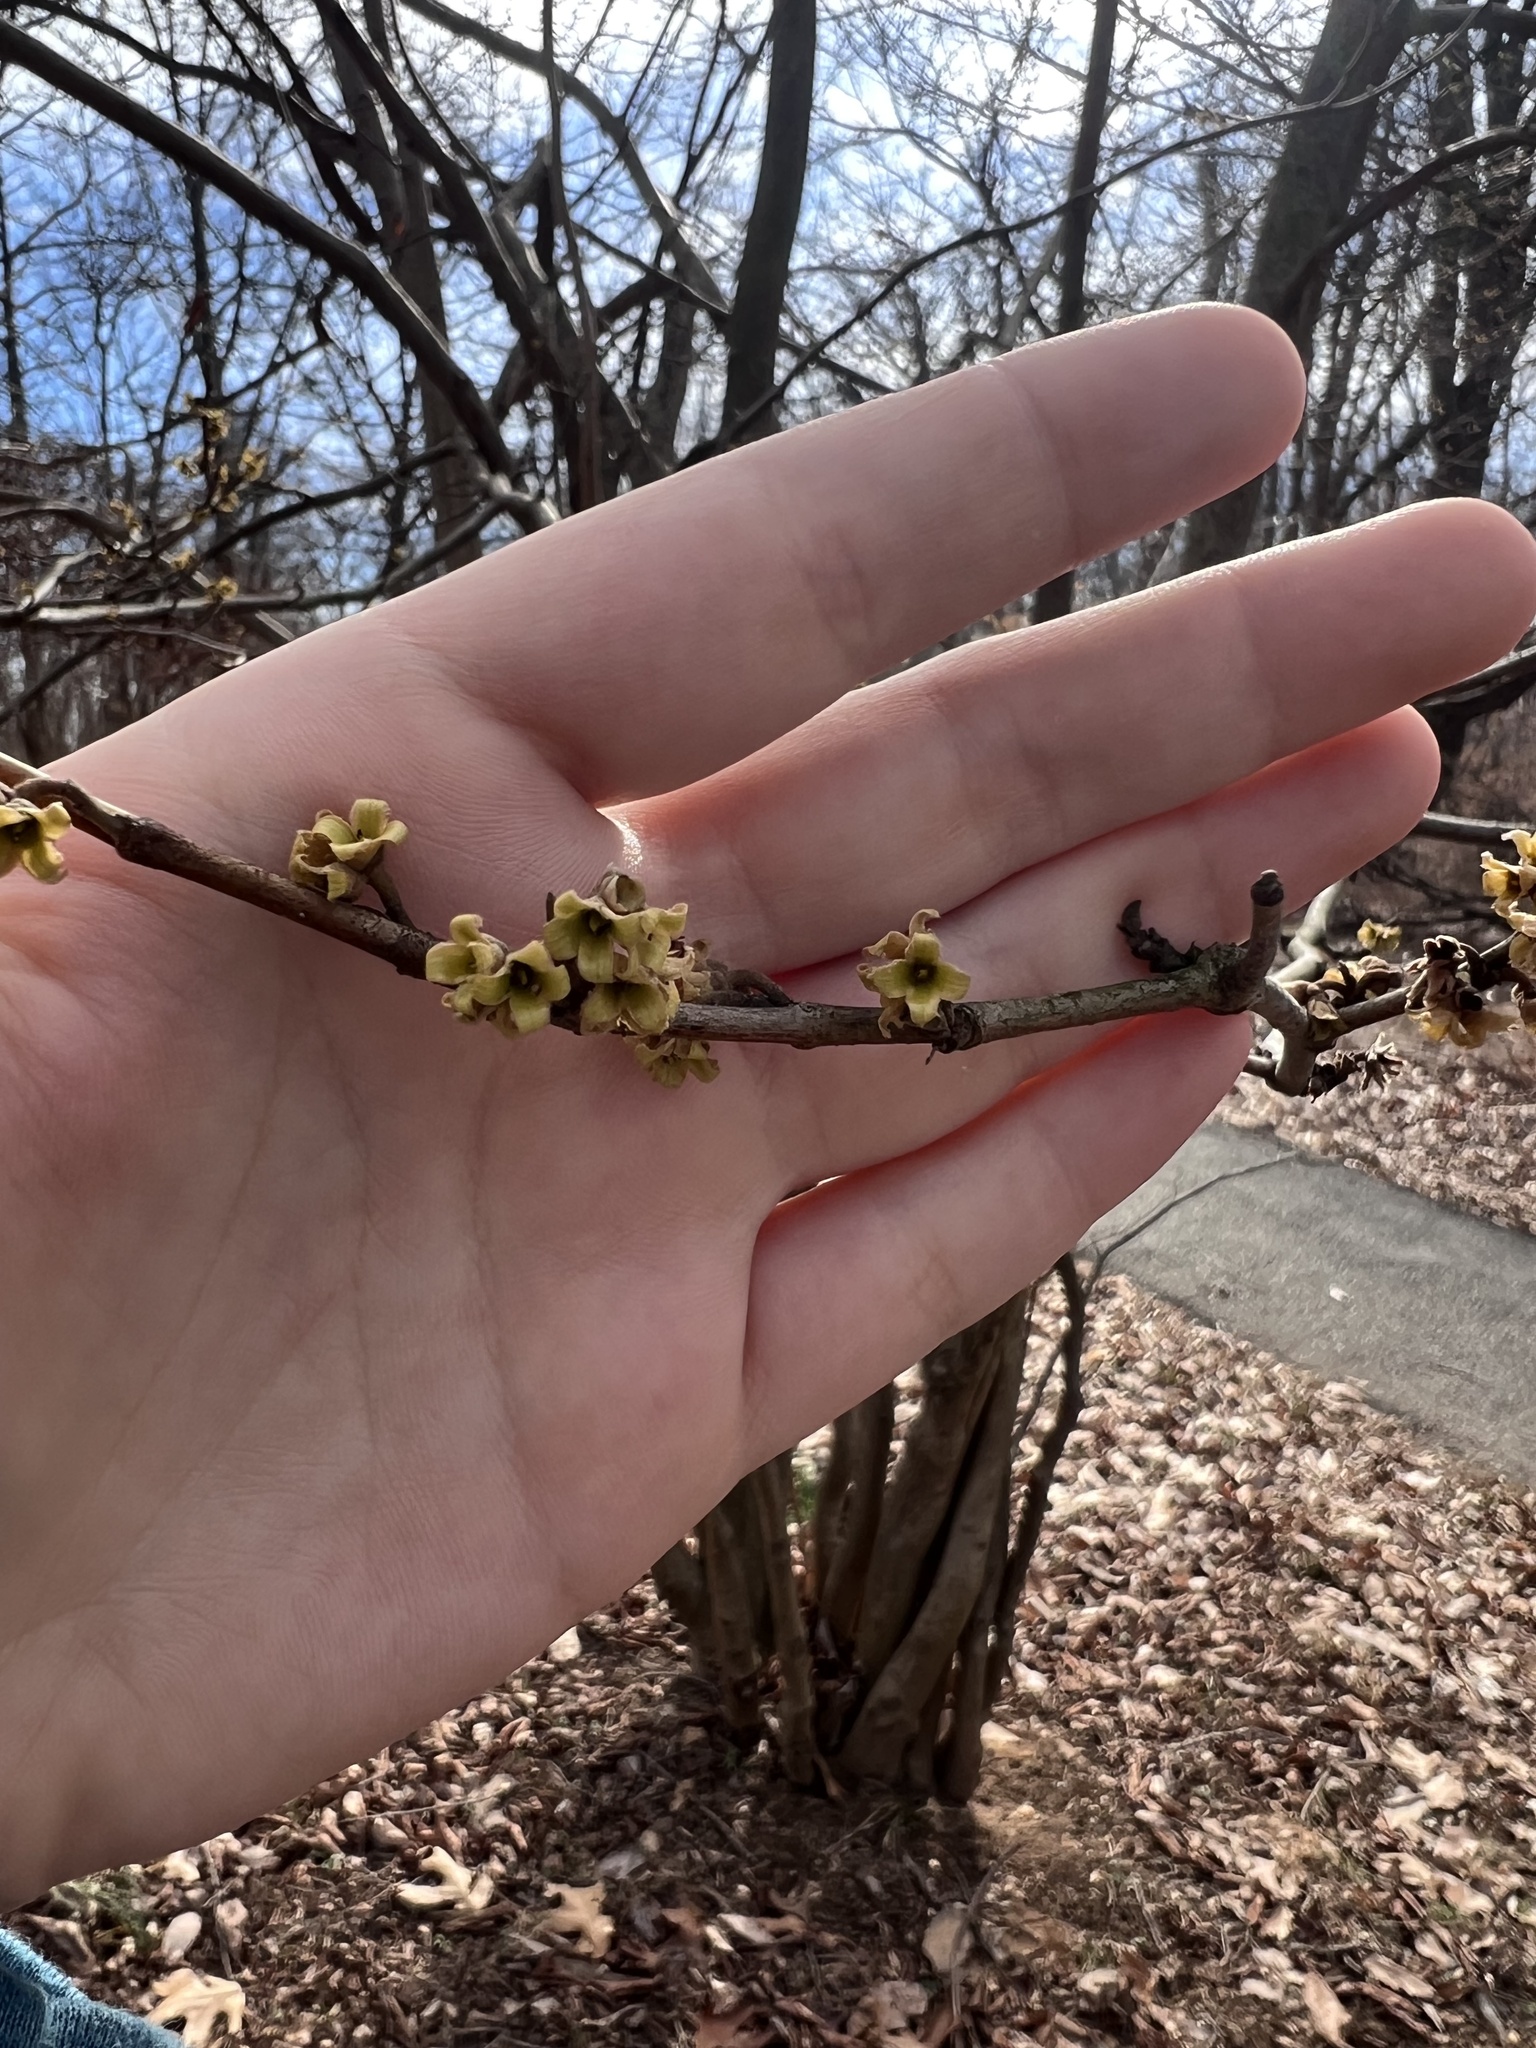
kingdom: Plantae
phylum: Tracheophyta
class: Magnoliopsida
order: Saxifragales
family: Hamamelidaceae
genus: Hamamelis
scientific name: Hamamelis virginiana
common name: Witch-hazel
